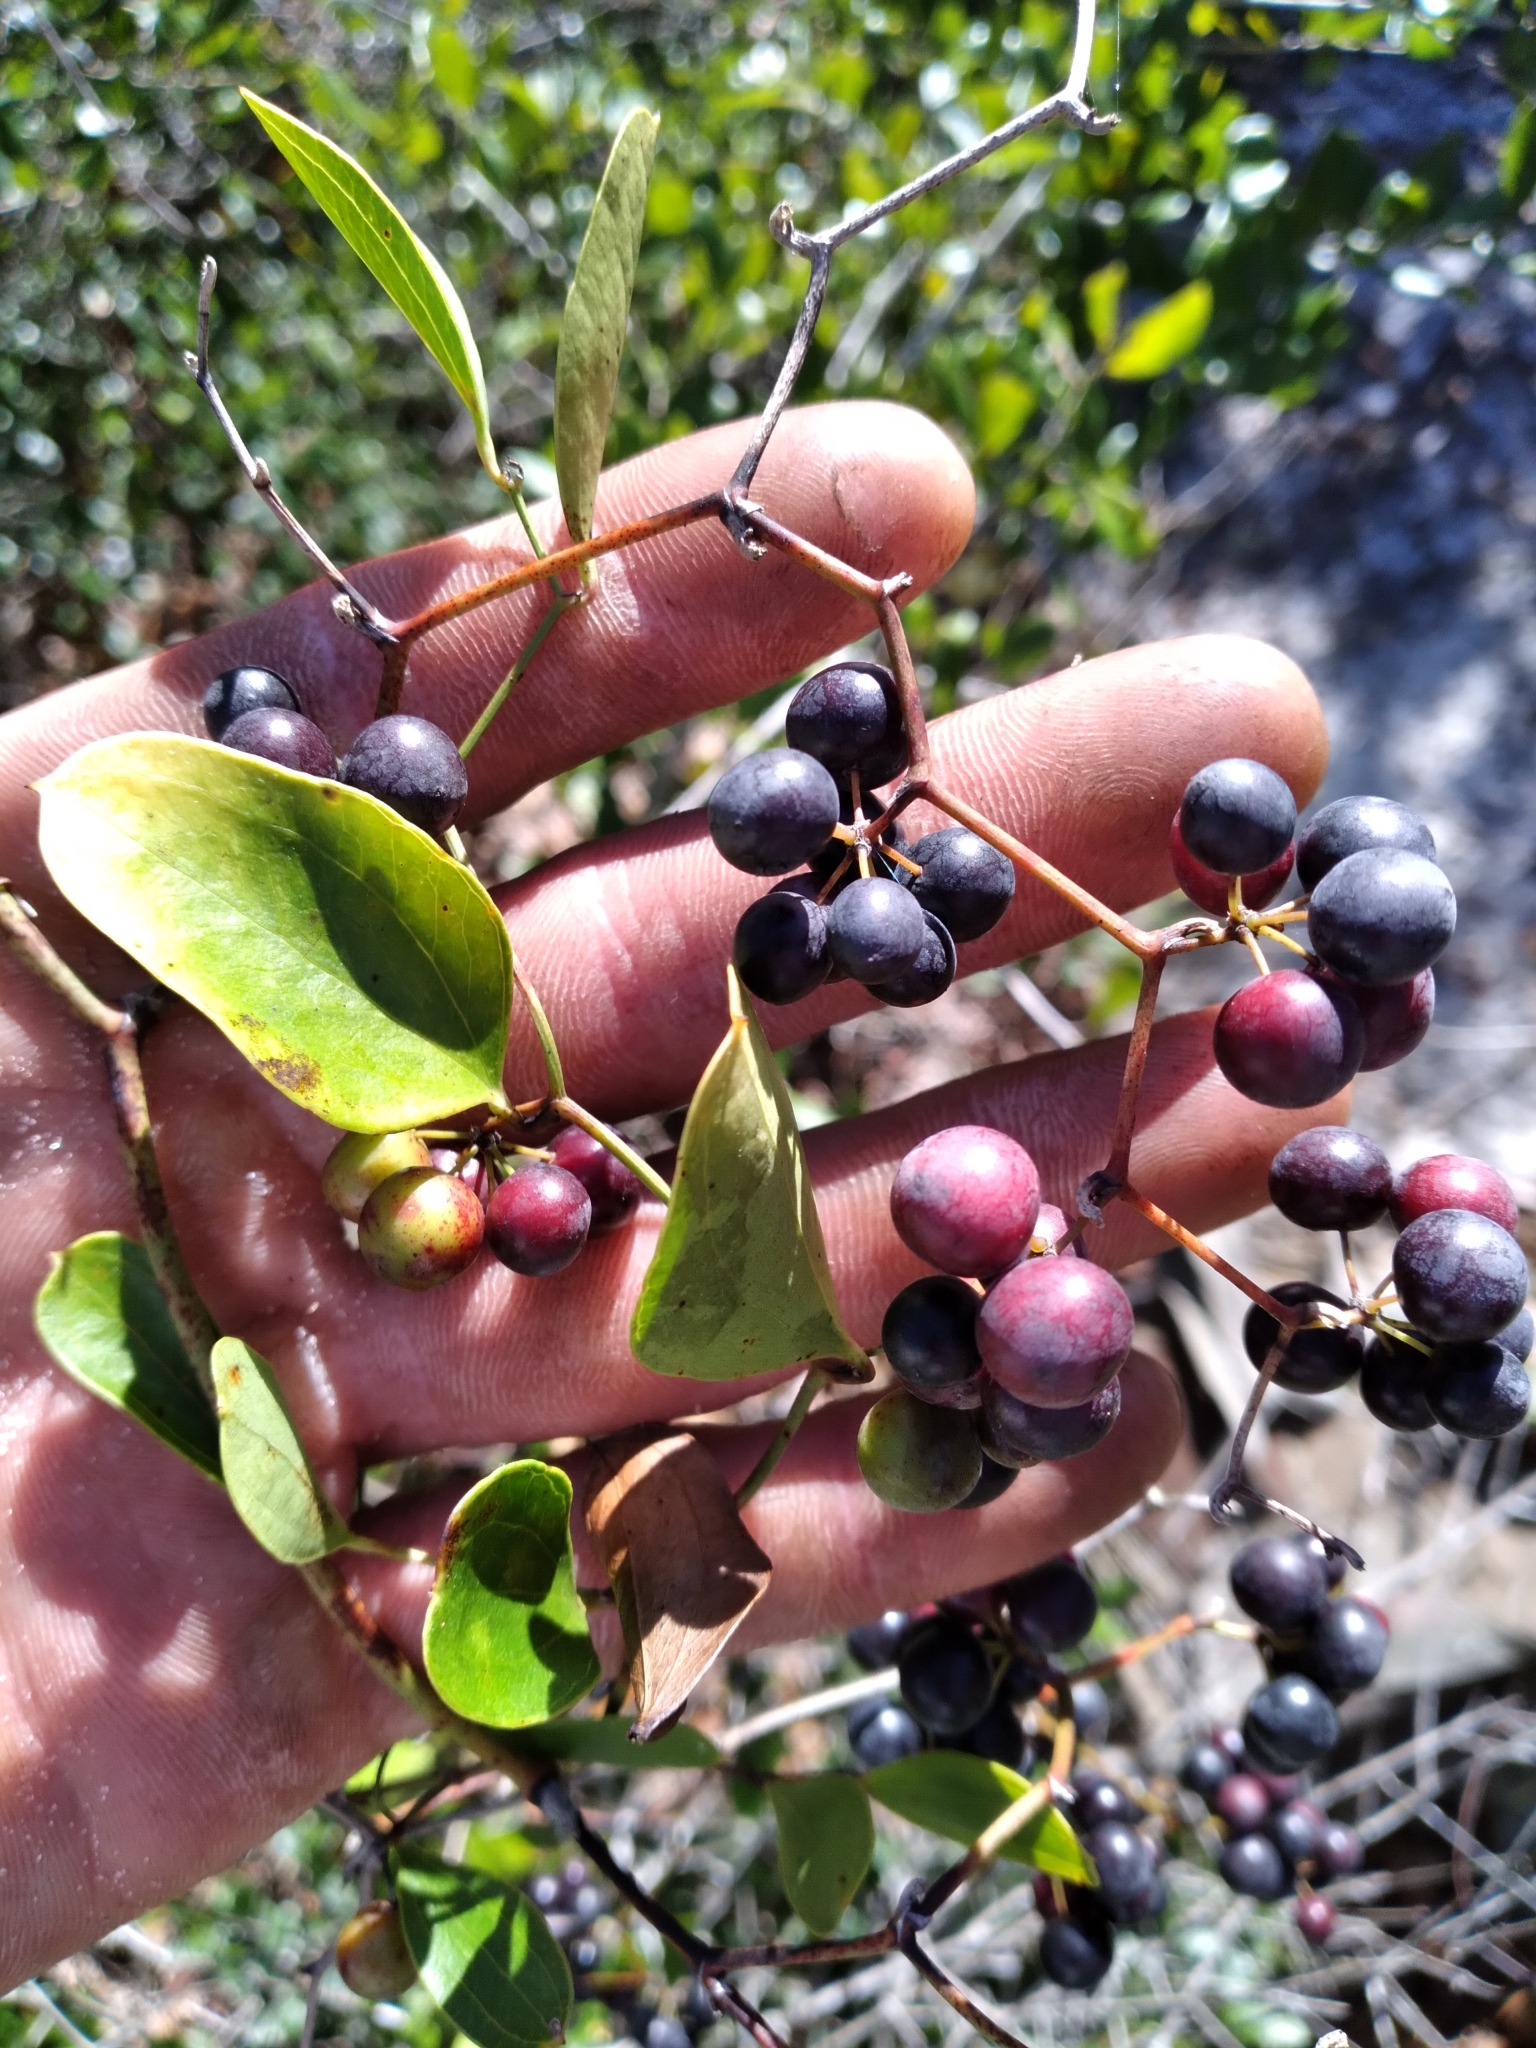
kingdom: Plantae
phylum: Tracheophyta
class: Liliopsida
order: Liliales
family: Smilacaceae
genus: Smilax
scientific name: Smilax auriculata
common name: Wild bamboo
